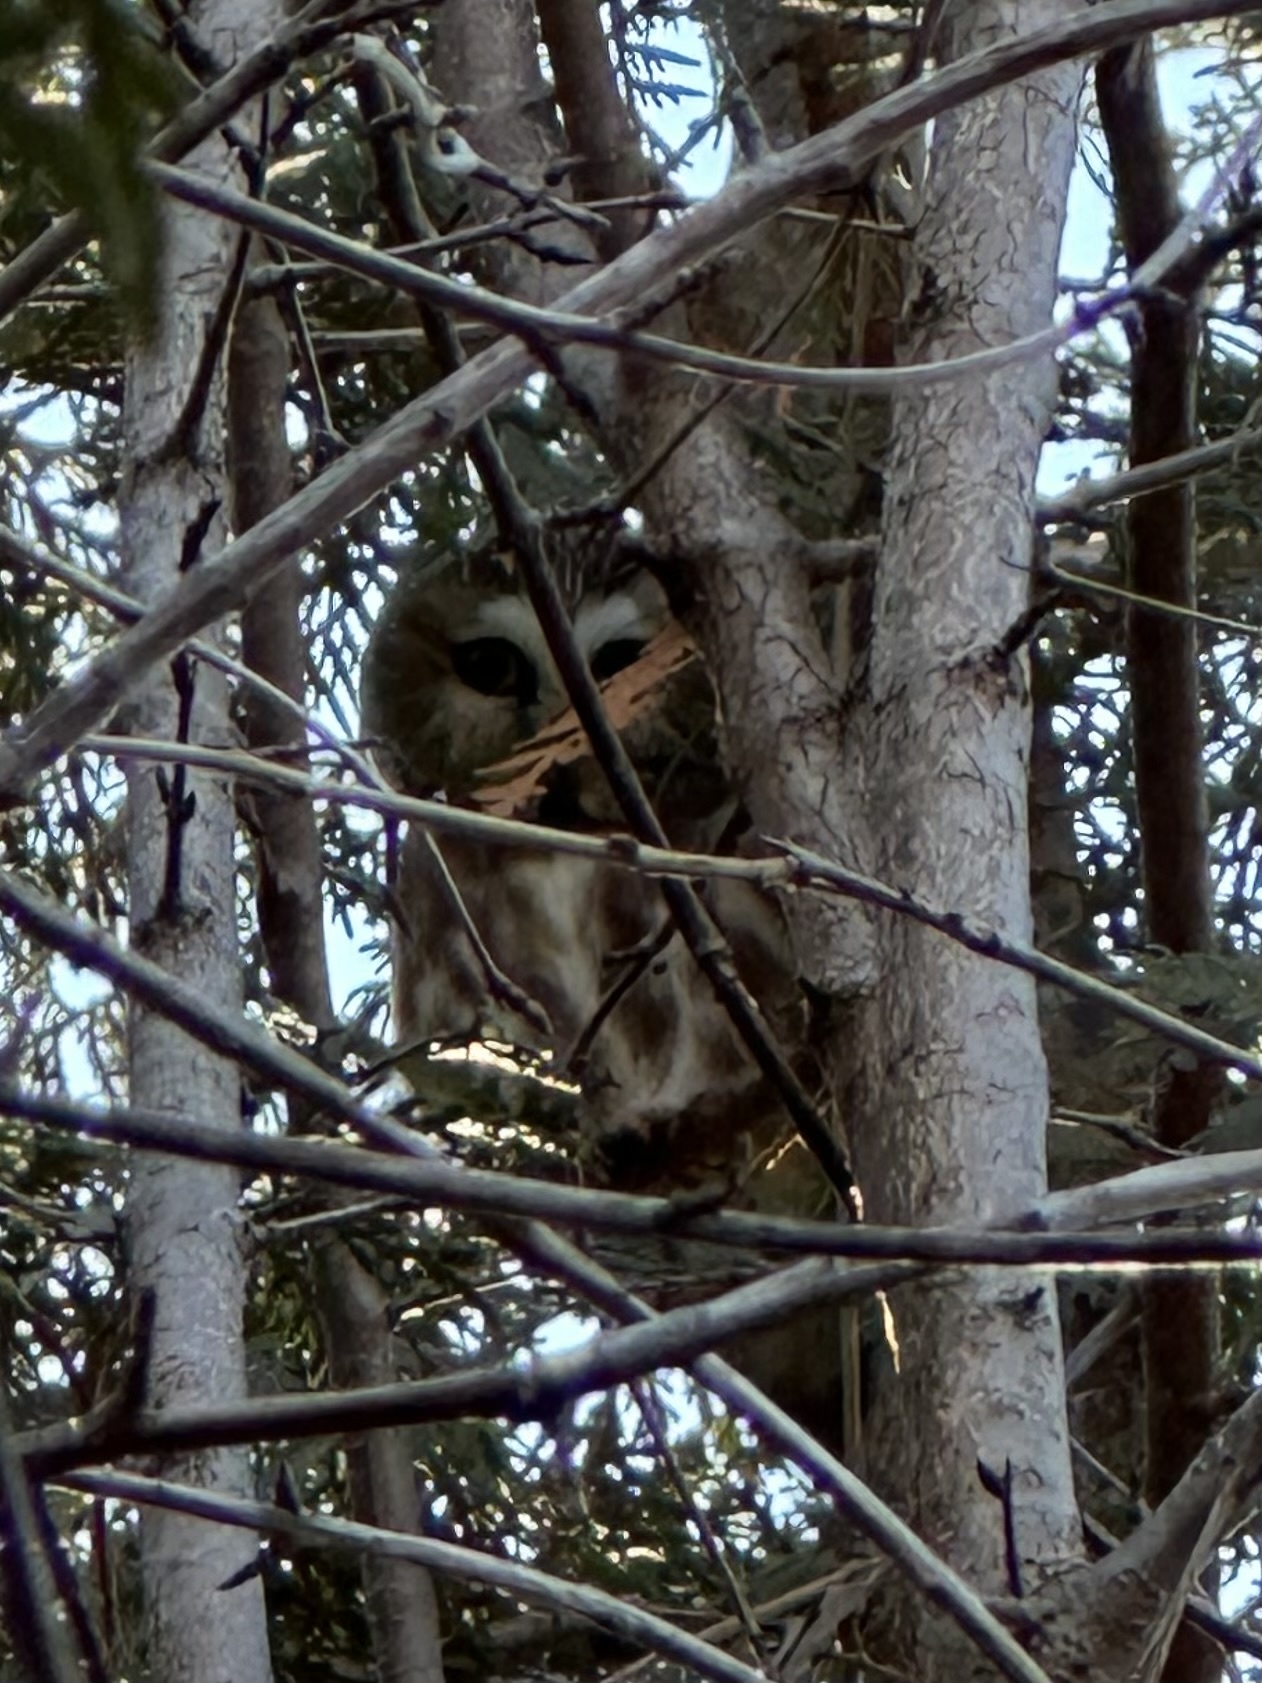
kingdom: Animalia
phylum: Chordata
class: Aves
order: Strigiformes
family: Strigidae
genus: Aegolius
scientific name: Aegolius acadicus
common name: Northern saw-whet owl
